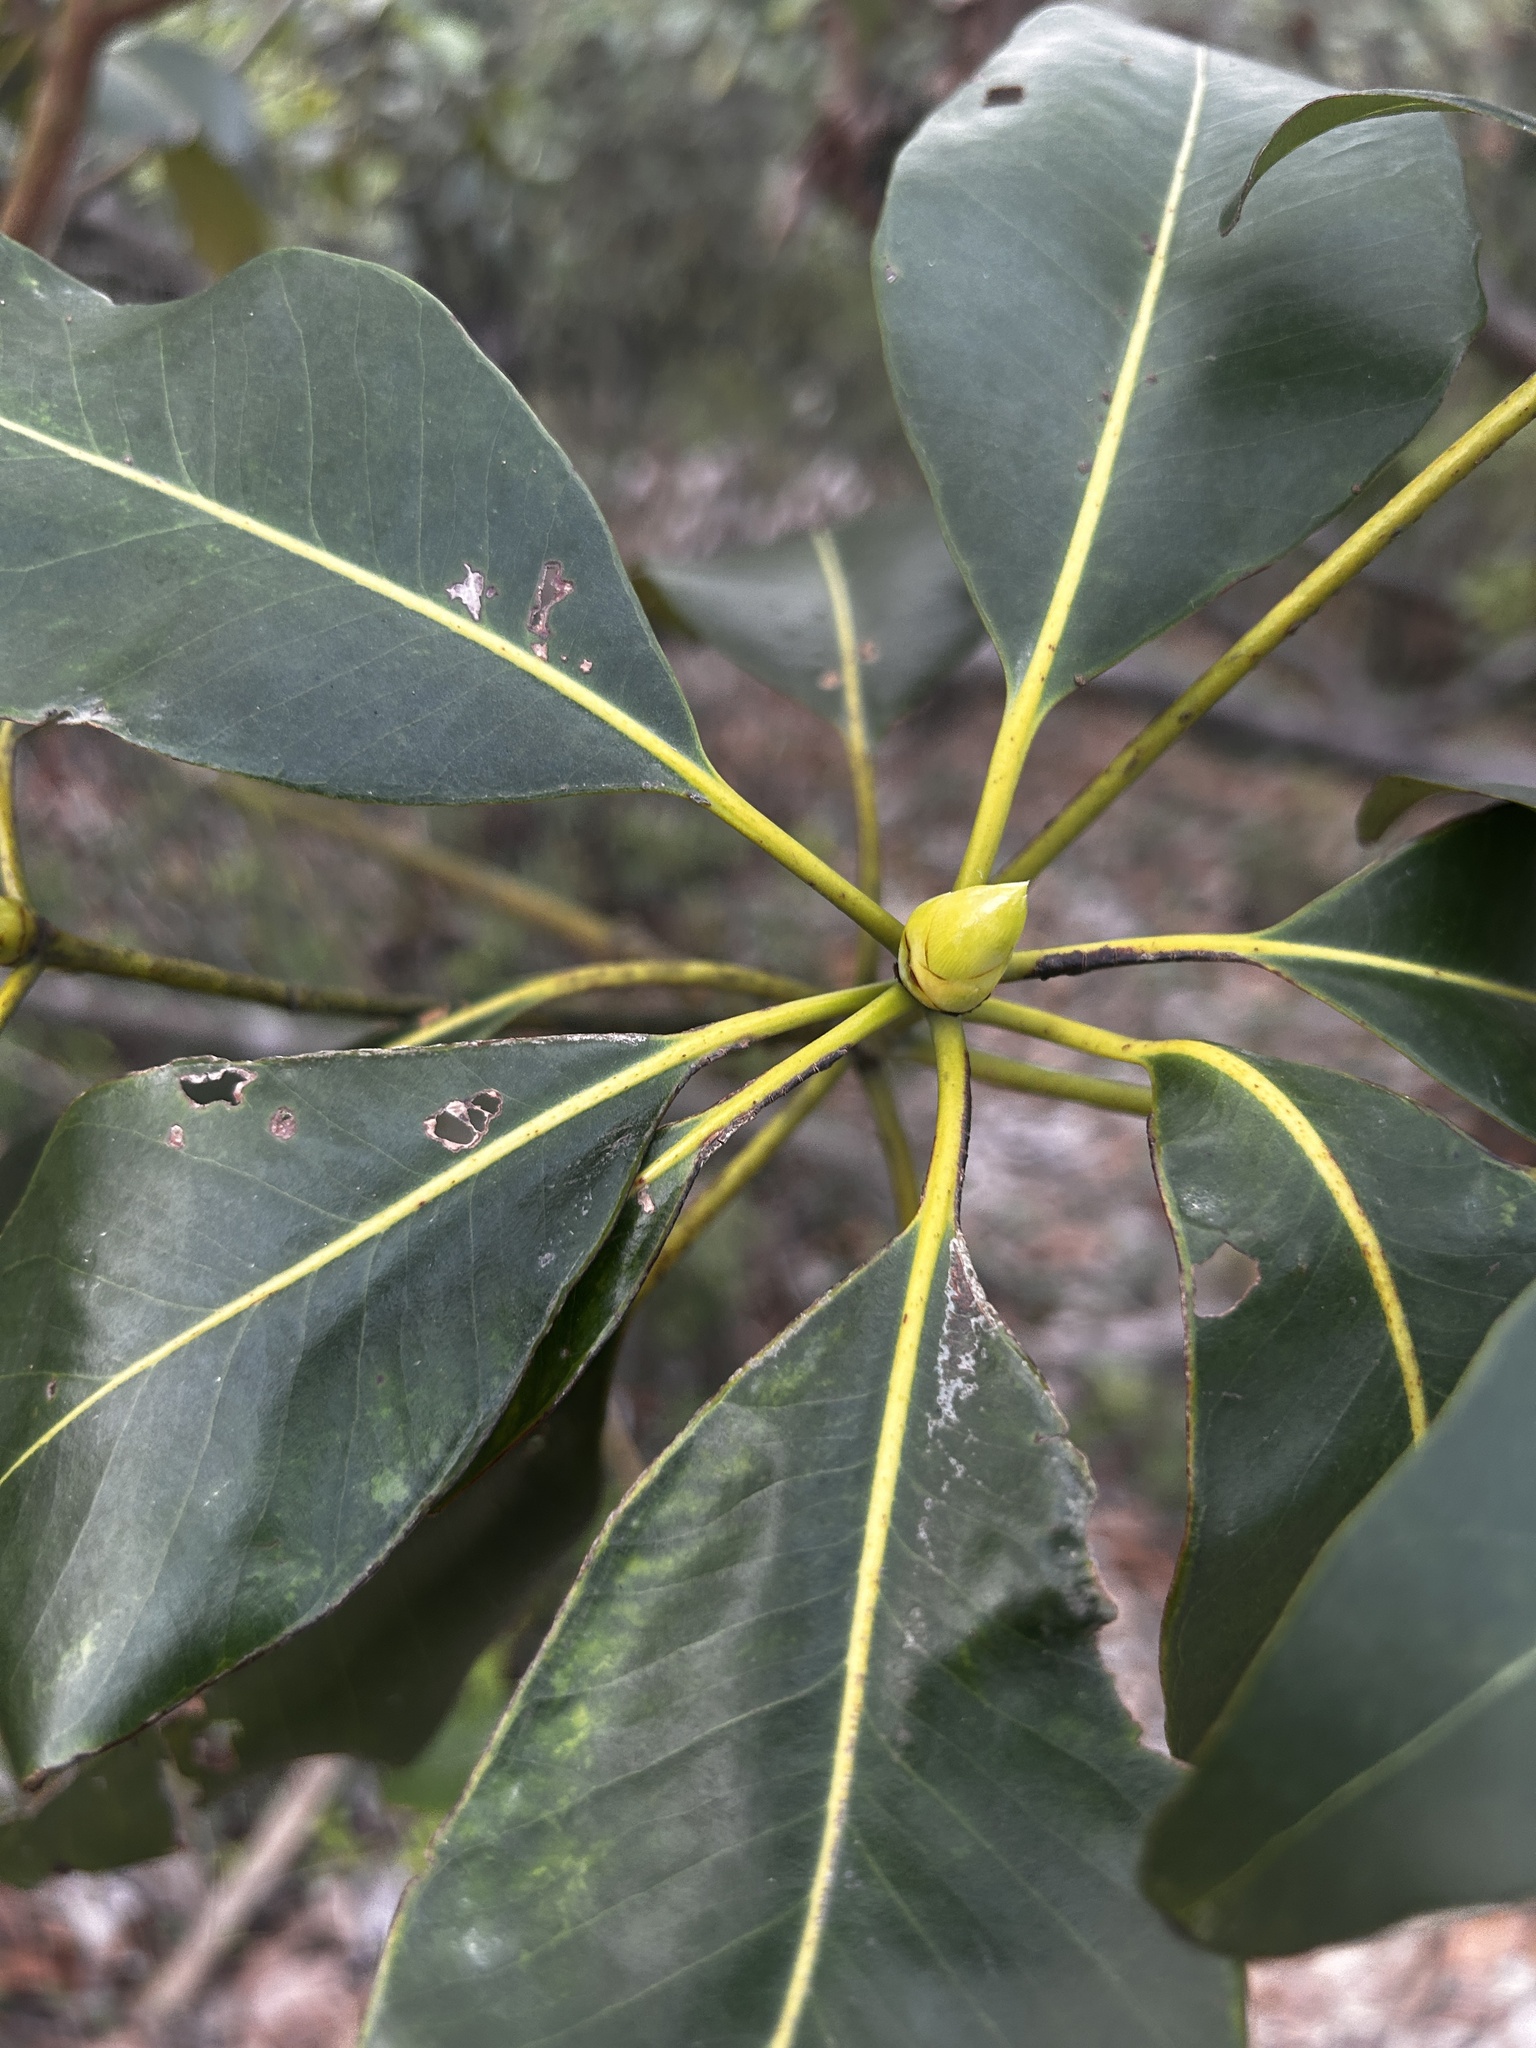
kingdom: Plantae
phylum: Tracheophyta
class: Magnoliopsida
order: Myrtales
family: Myrtaceae
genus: Lophostemon
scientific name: Lophostemon confertus
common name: Brisbane box
